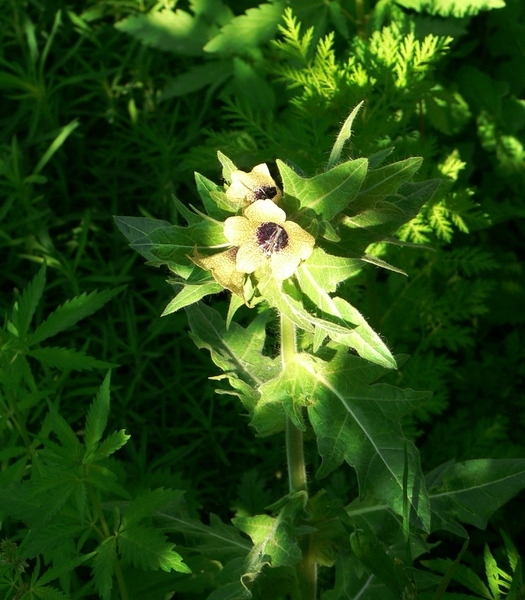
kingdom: Plantae
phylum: Tracheophyta
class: Magnoliopsida
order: Solanales
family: Solanaceae
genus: Hyoscyamus
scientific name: Hyoscyamus niger
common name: Henbane
